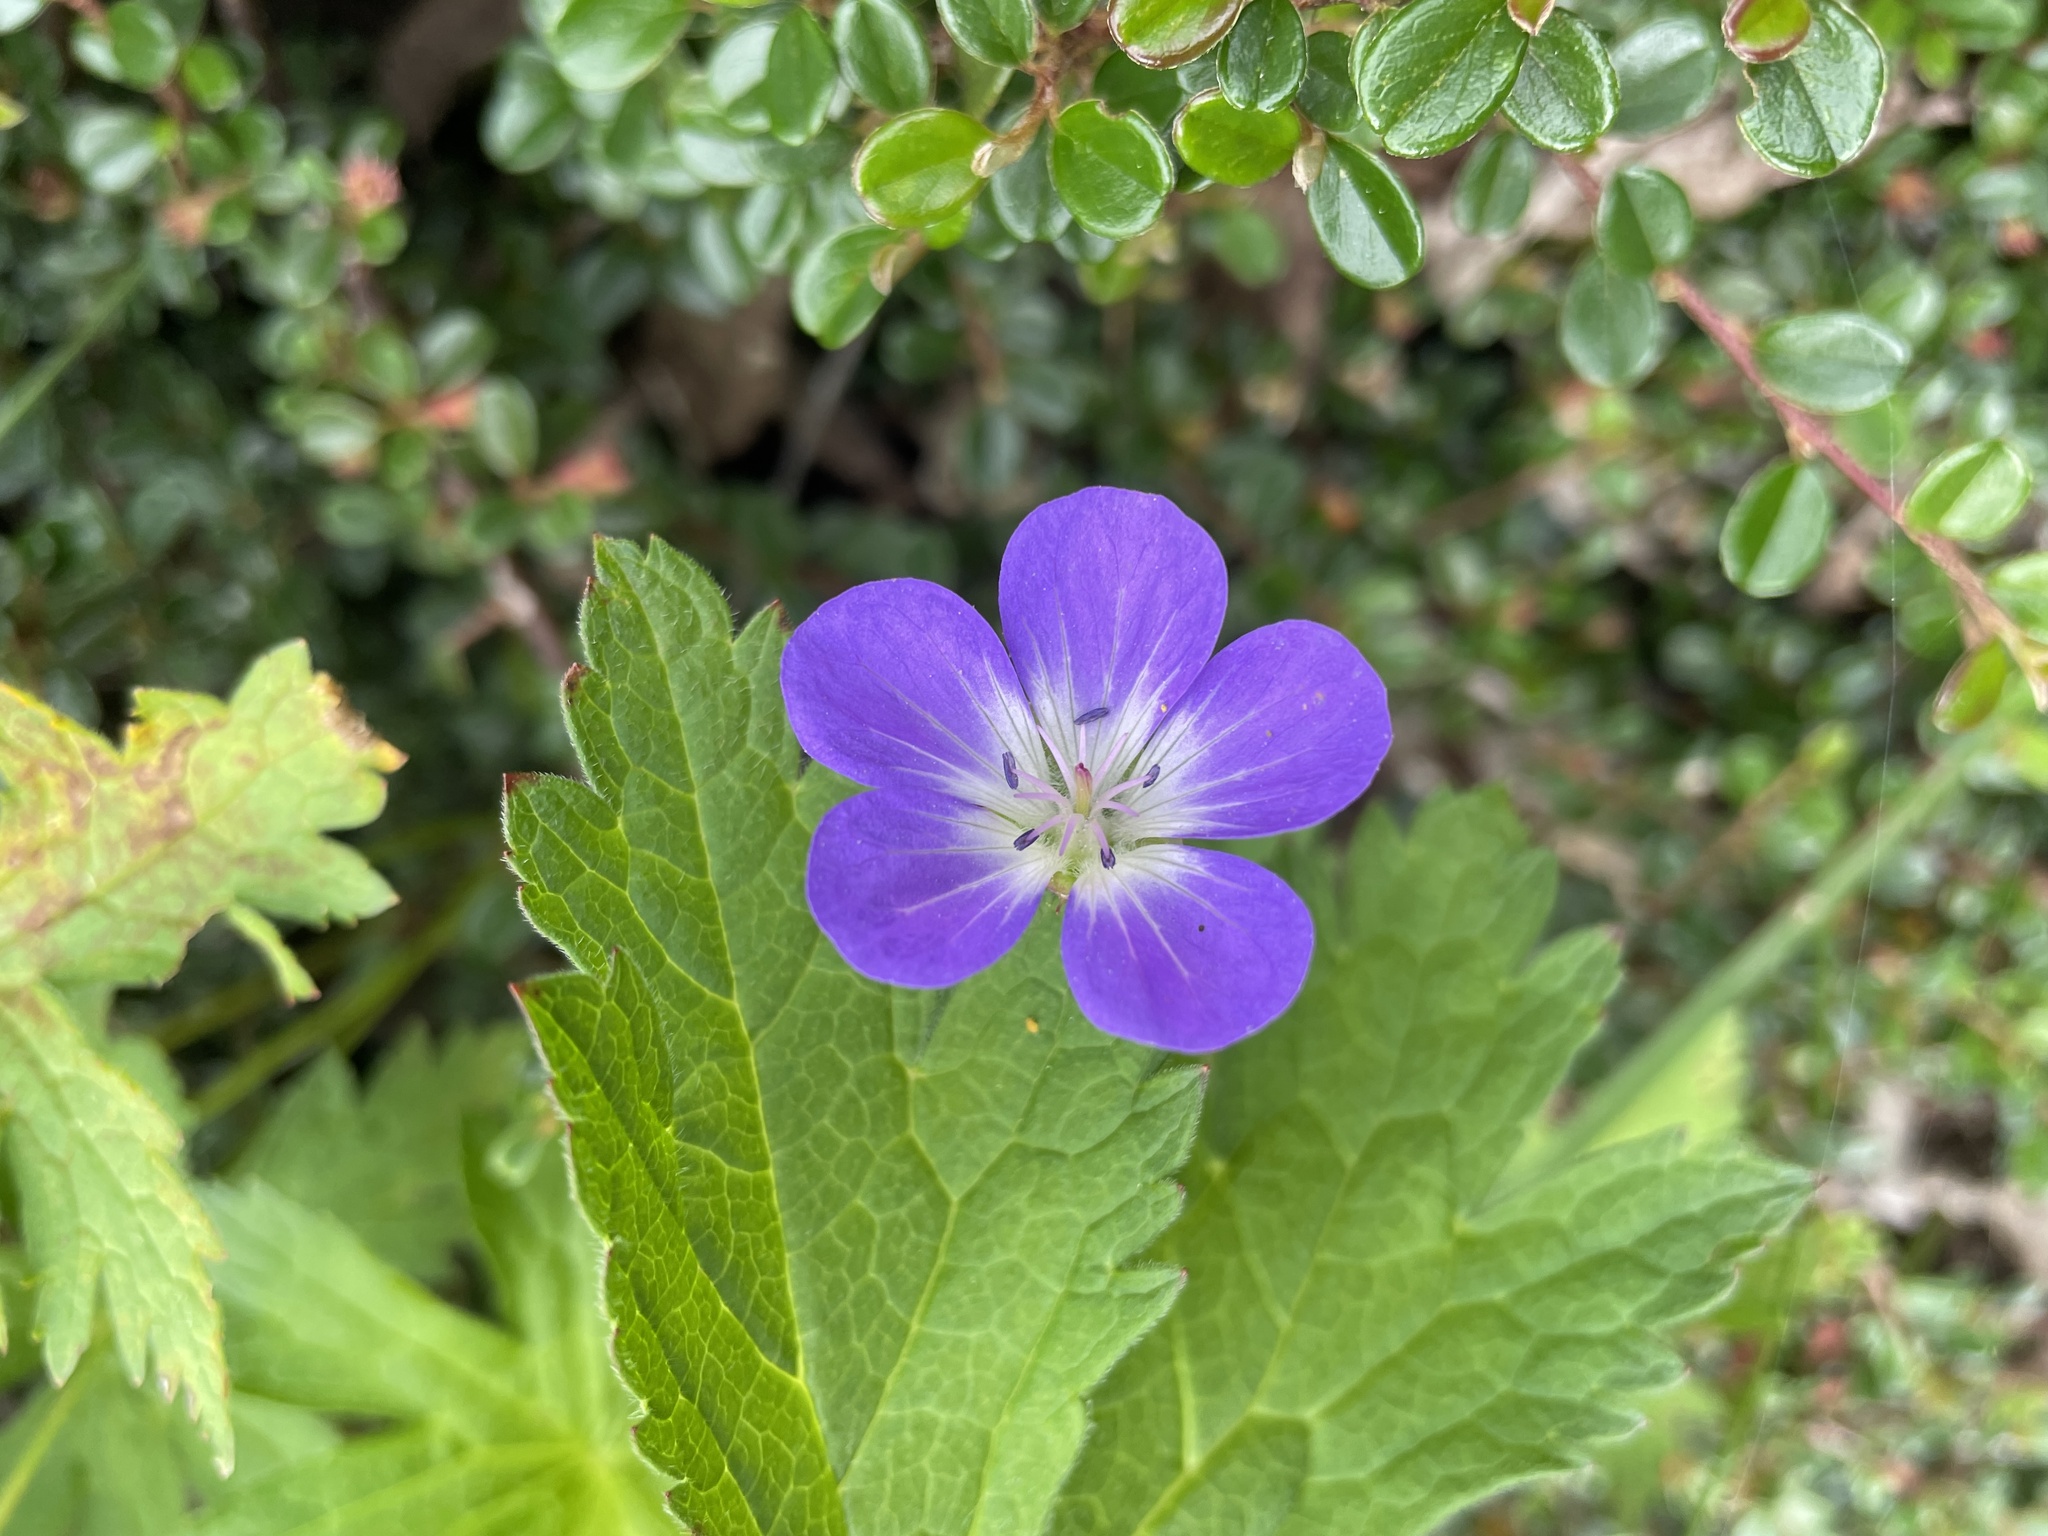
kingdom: Plantae
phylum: Tracheophyta
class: Magnoliopsida
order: Geraniales
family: Geraniaceae
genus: Geranium
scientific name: Geranium sylvaticum
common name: Wood crane's-bill
